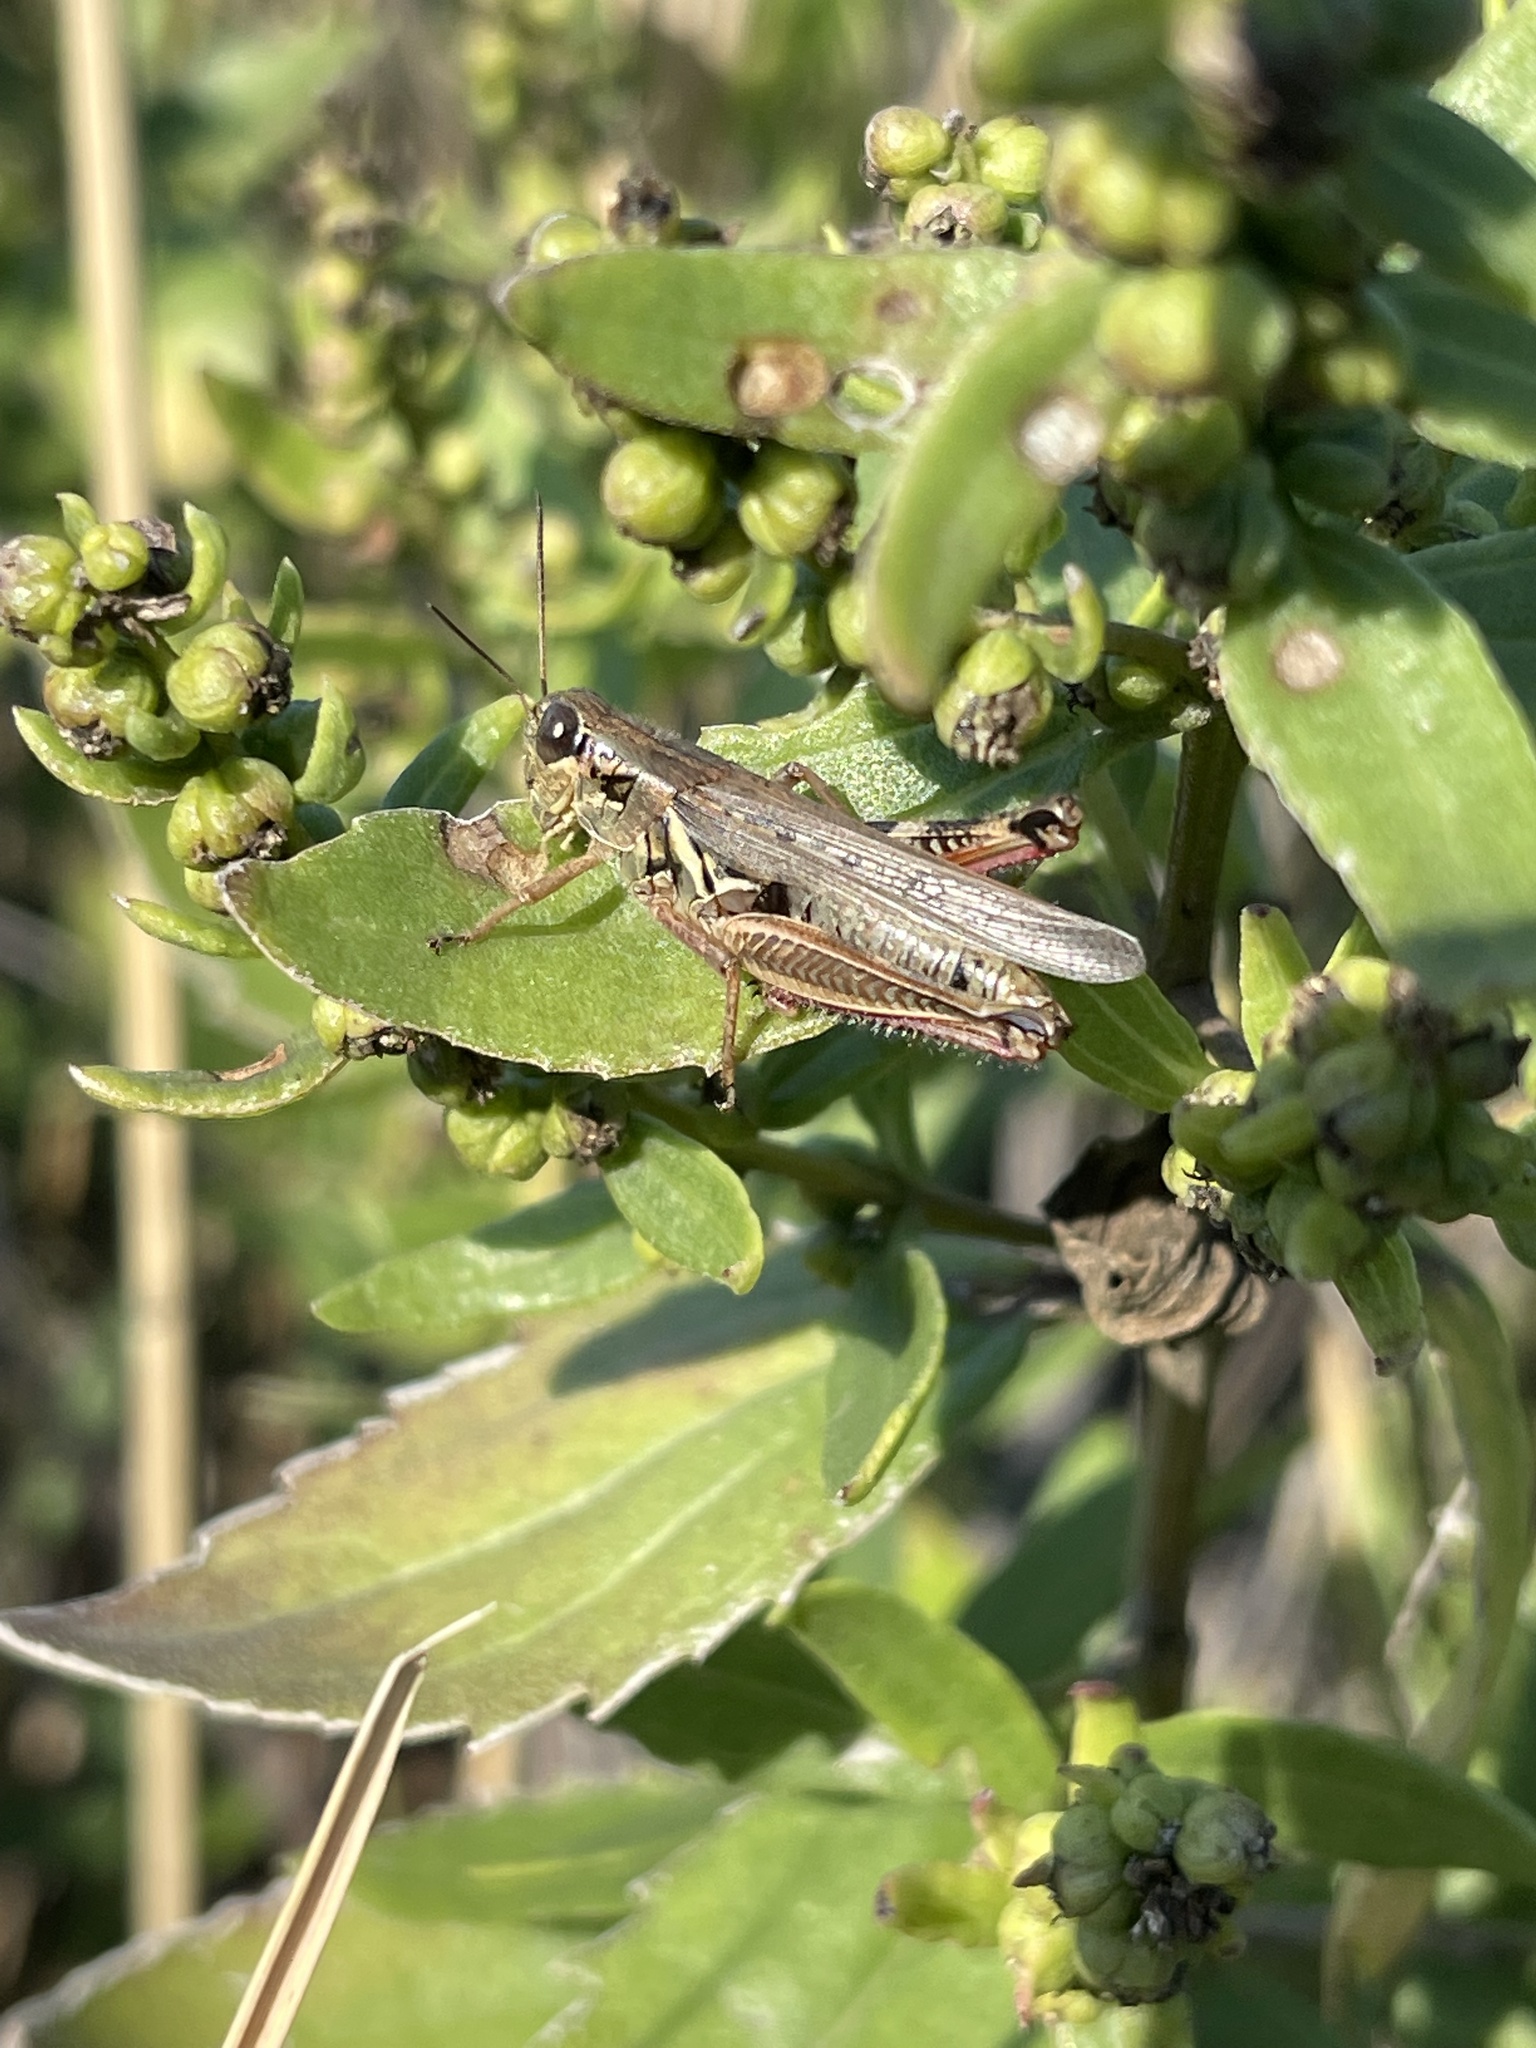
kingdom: Animalia
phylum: Arthropoda
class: Insecta
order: Orthoptera
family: Acrididae
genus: Melanoplus
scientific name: Melanoplus femurrubrum
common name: Red-legged grasshopper
